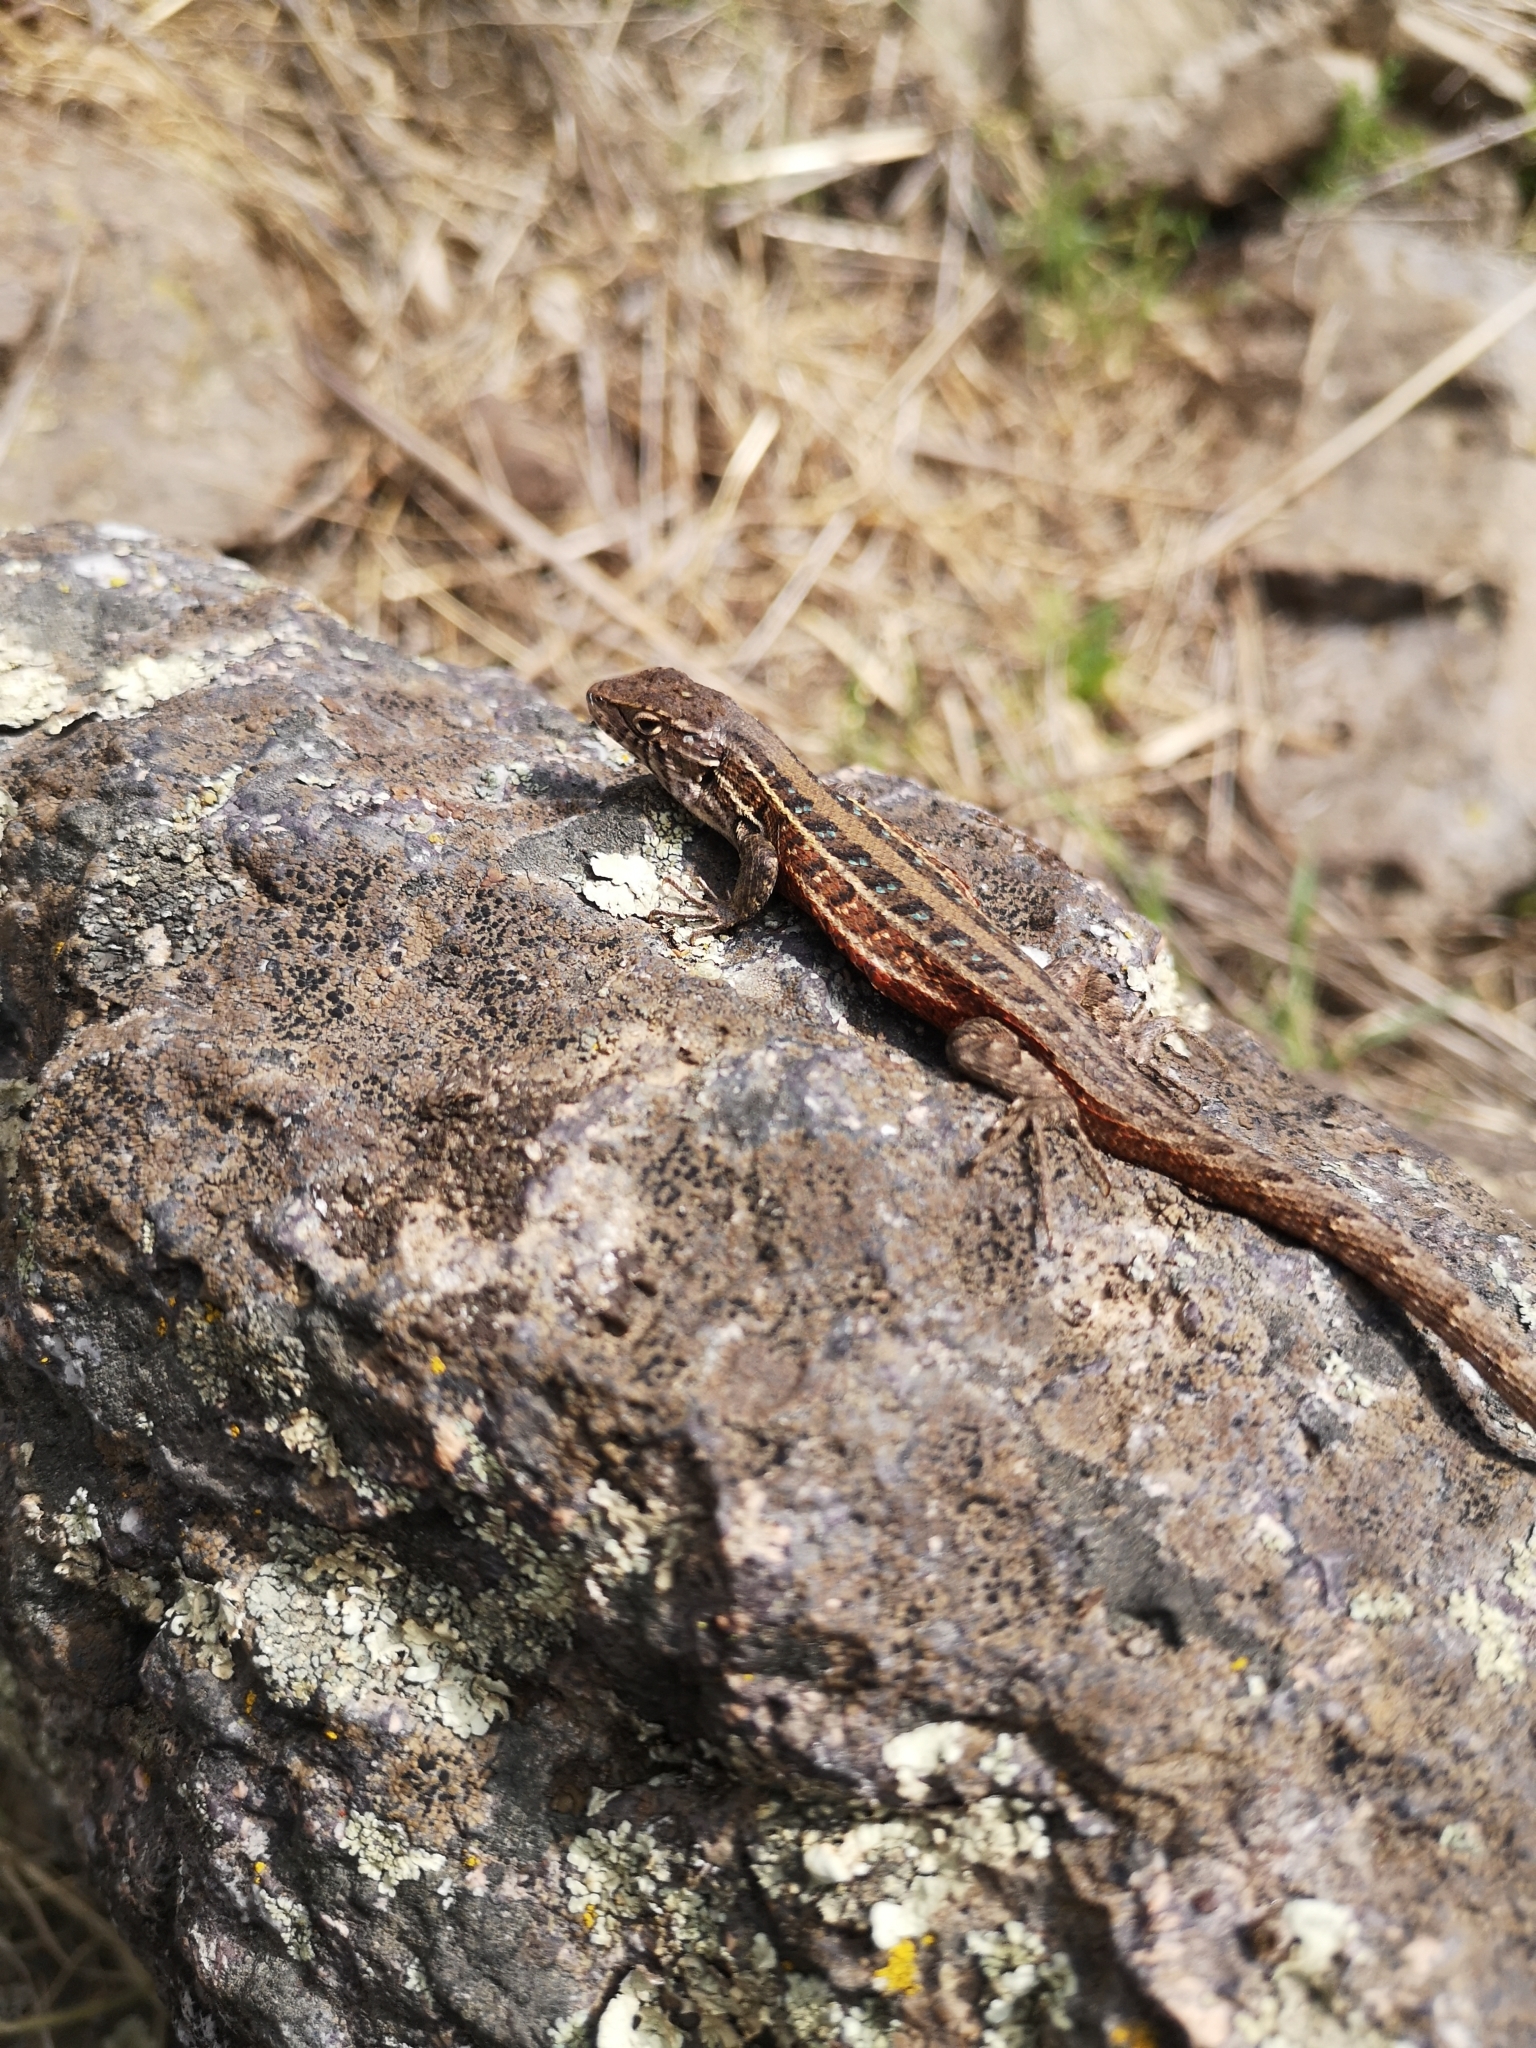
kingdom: Animalia
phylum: Chordata
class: Squamata
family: Liolaemidae
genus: Liolaemus
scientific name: Liolaemus lemniscatus
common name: Wreath tree iguana
